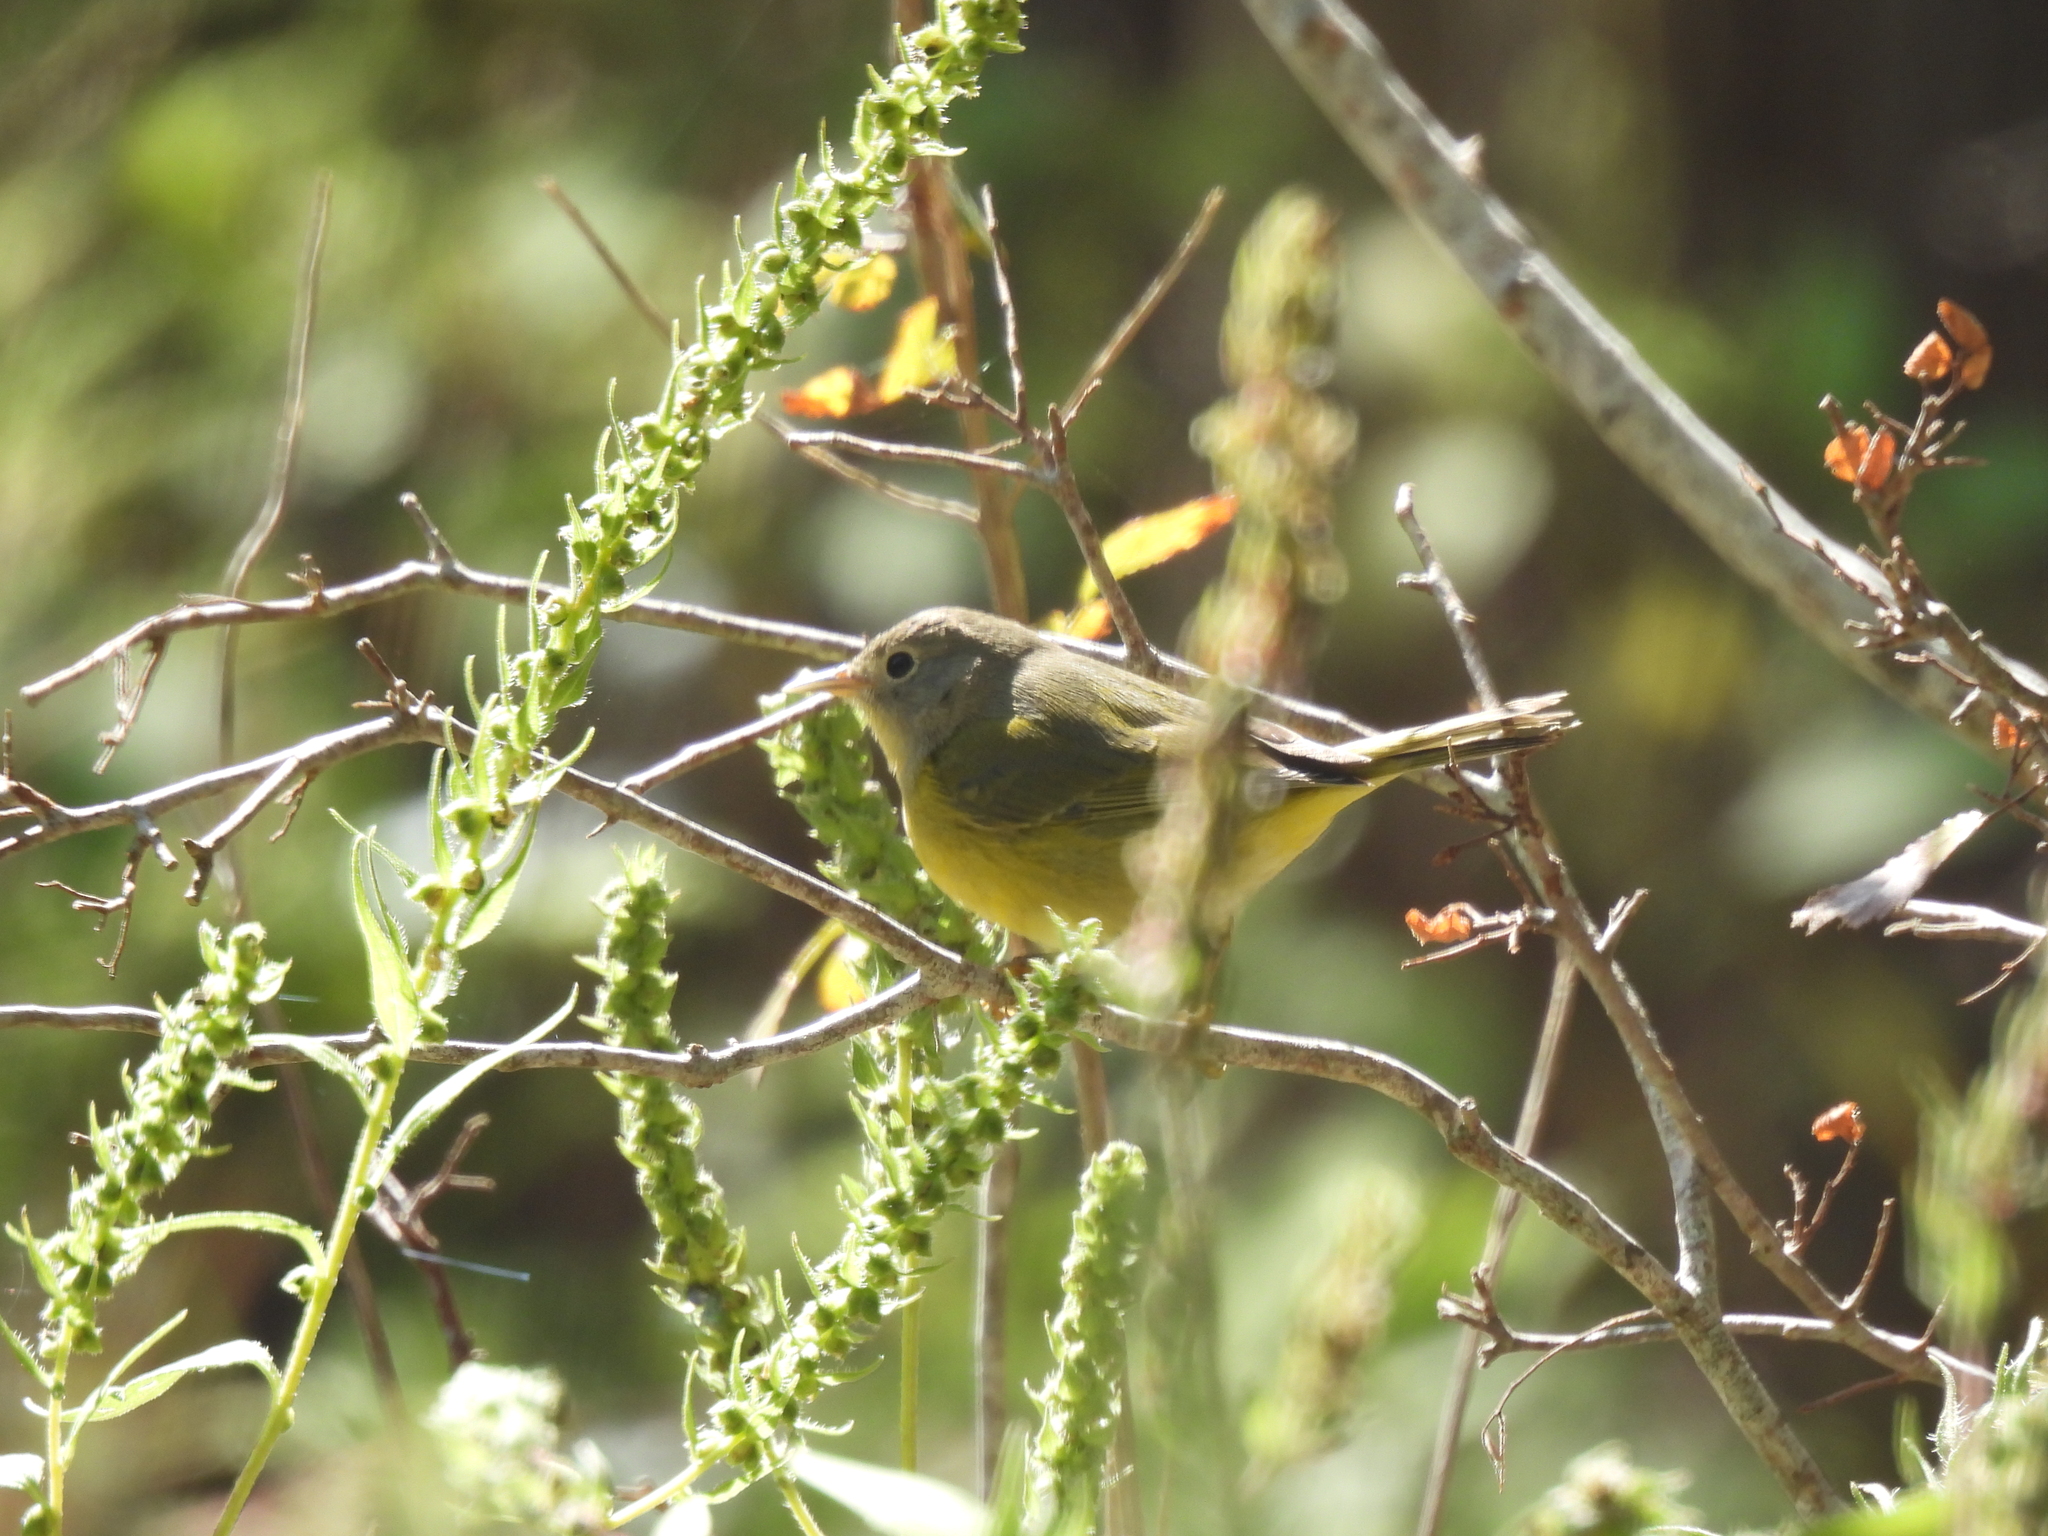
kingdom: Animalia
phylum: Chordata
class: Aves
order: Passeriformes
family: Parulidae
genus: Leiothlypis
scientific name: Leiothlypis ruficapilla
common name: Nashville warbler
